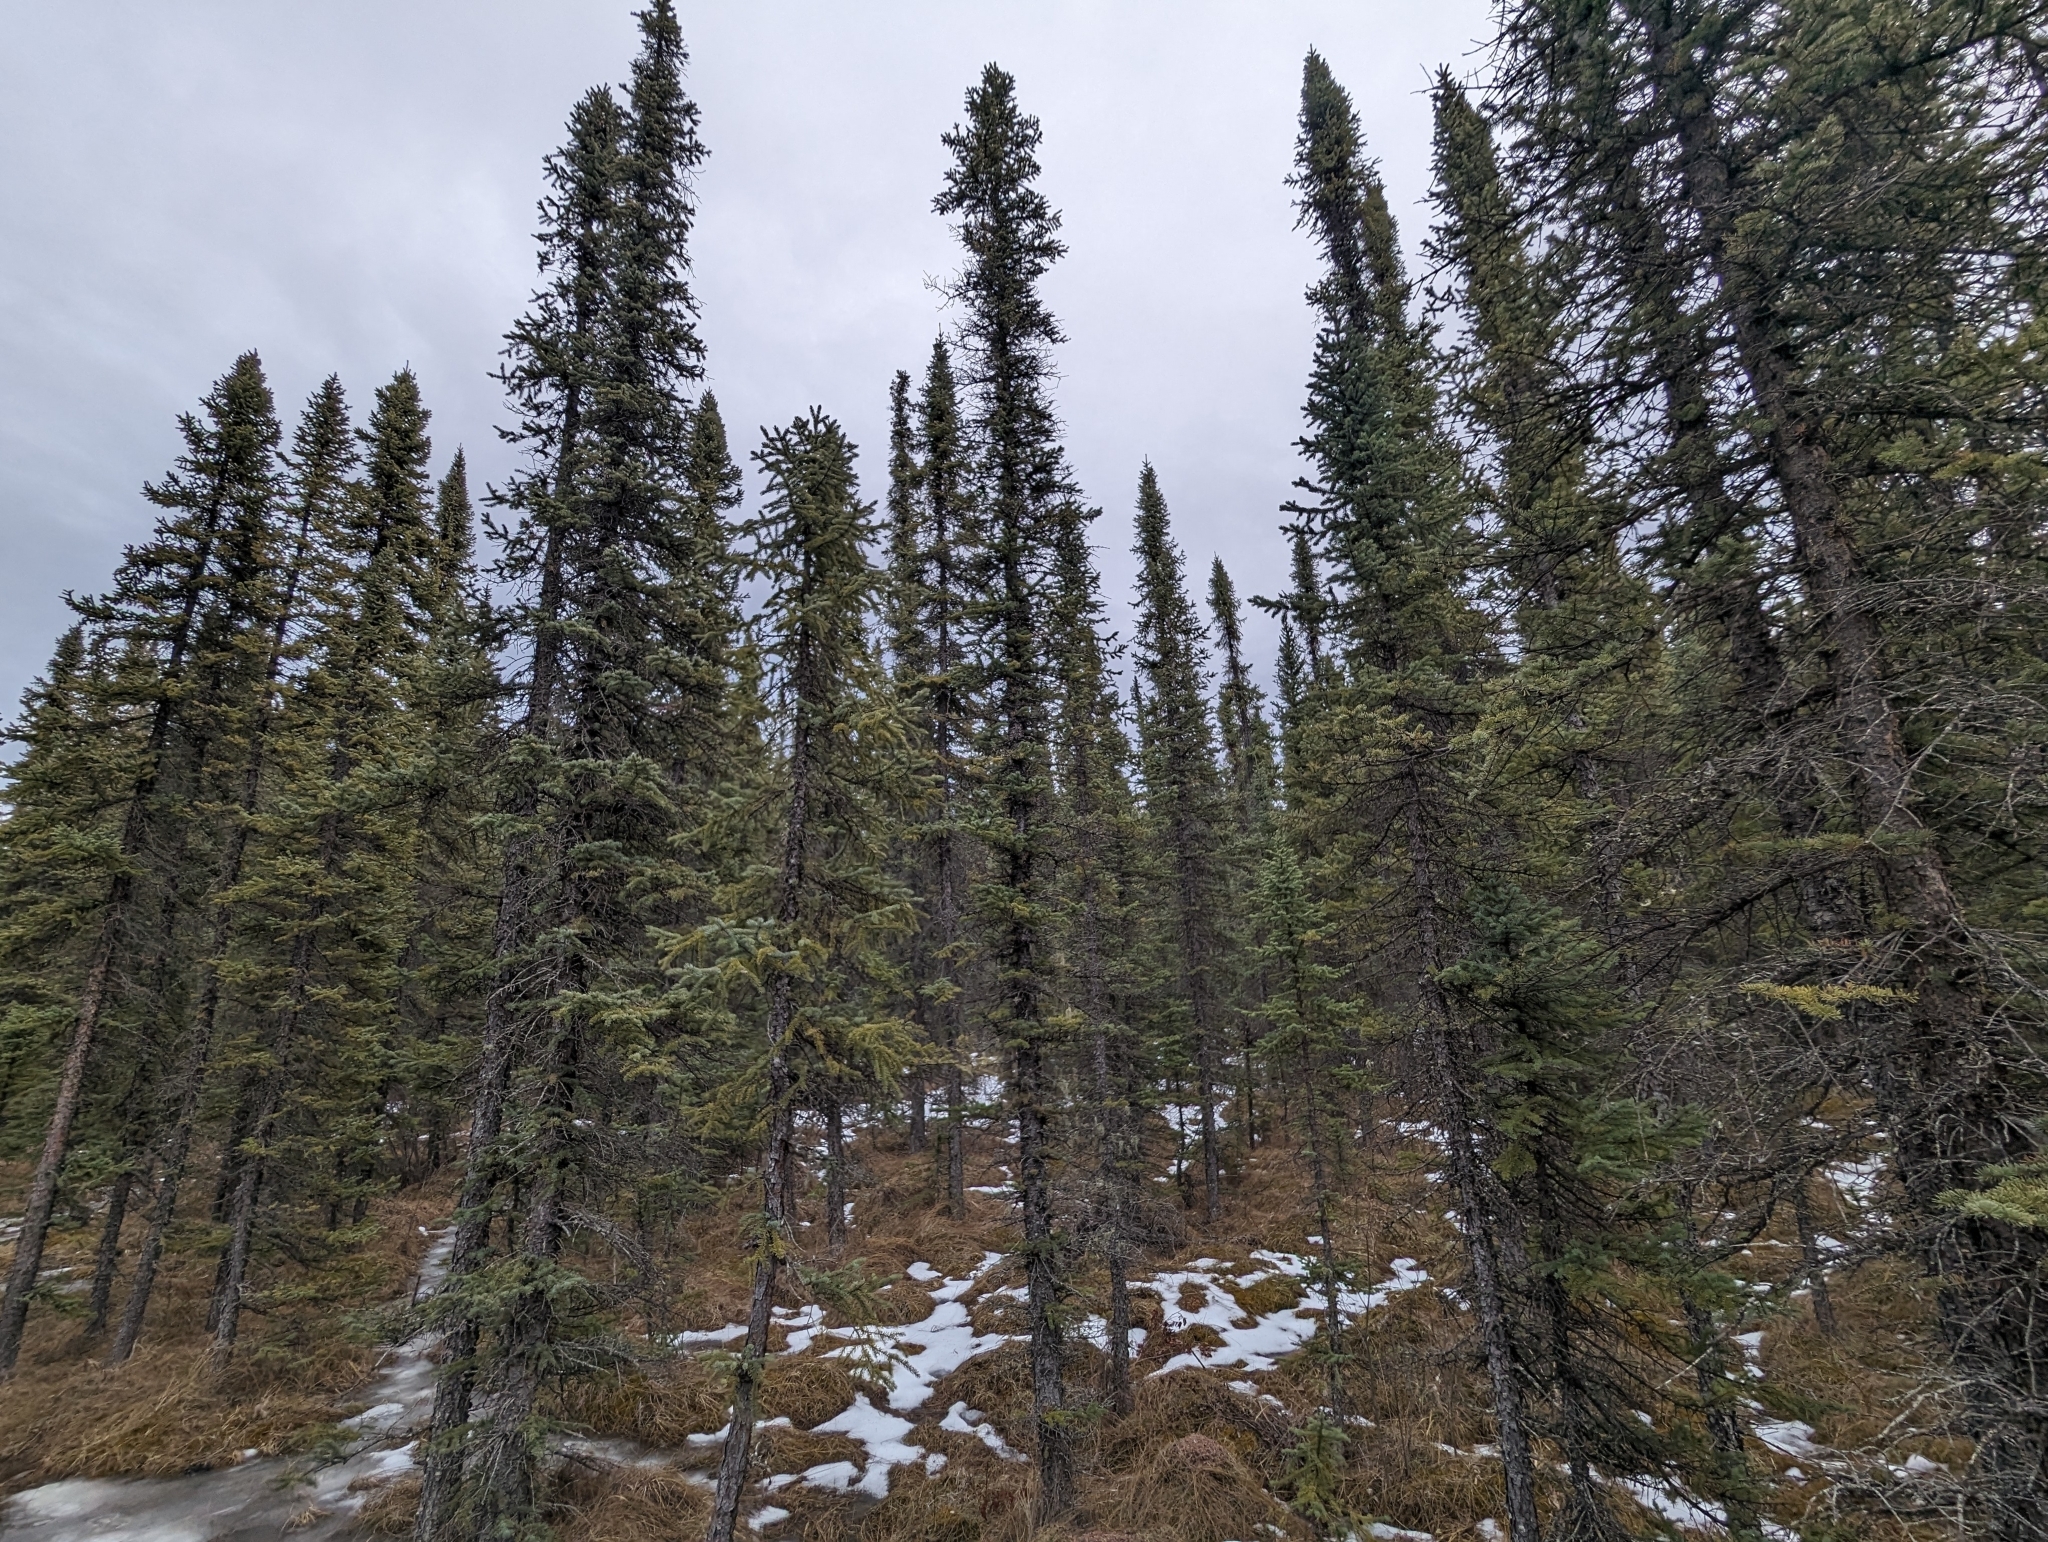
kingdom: Plantae
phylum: Tracheophyta
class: Pinopsida
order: Pinales
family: Pinaceae
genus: Picea
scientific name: Picea mariana
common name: Black spruce
